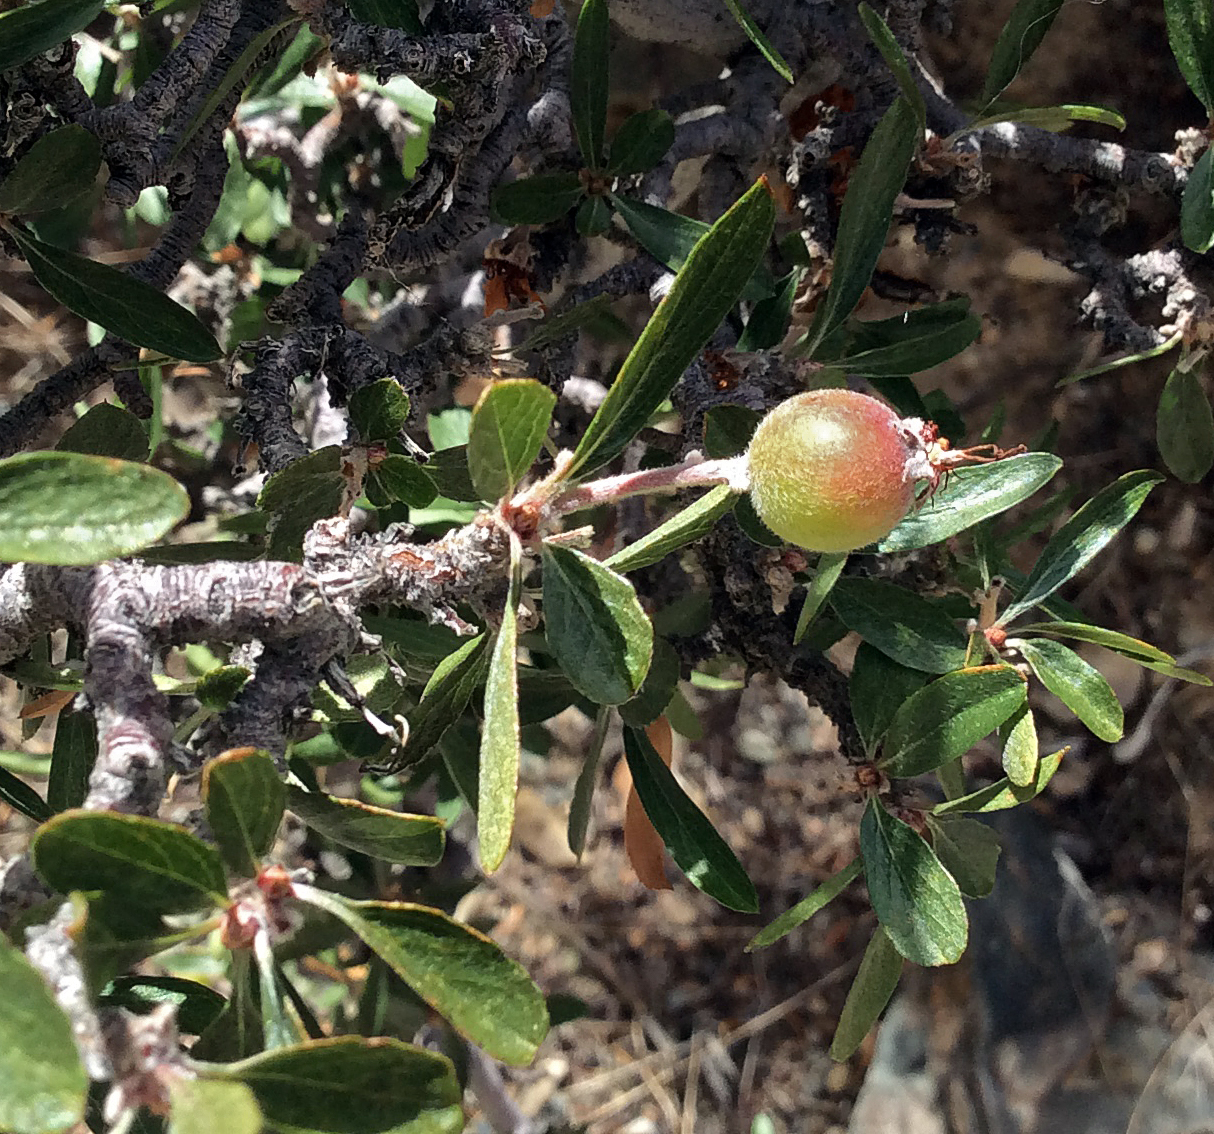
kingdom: Plantae
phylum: Tracheophyta
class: Magnoliopsida
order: Rosales
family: Rosaceae
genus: Amelanchier
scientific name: Amelanchier ramosissima
